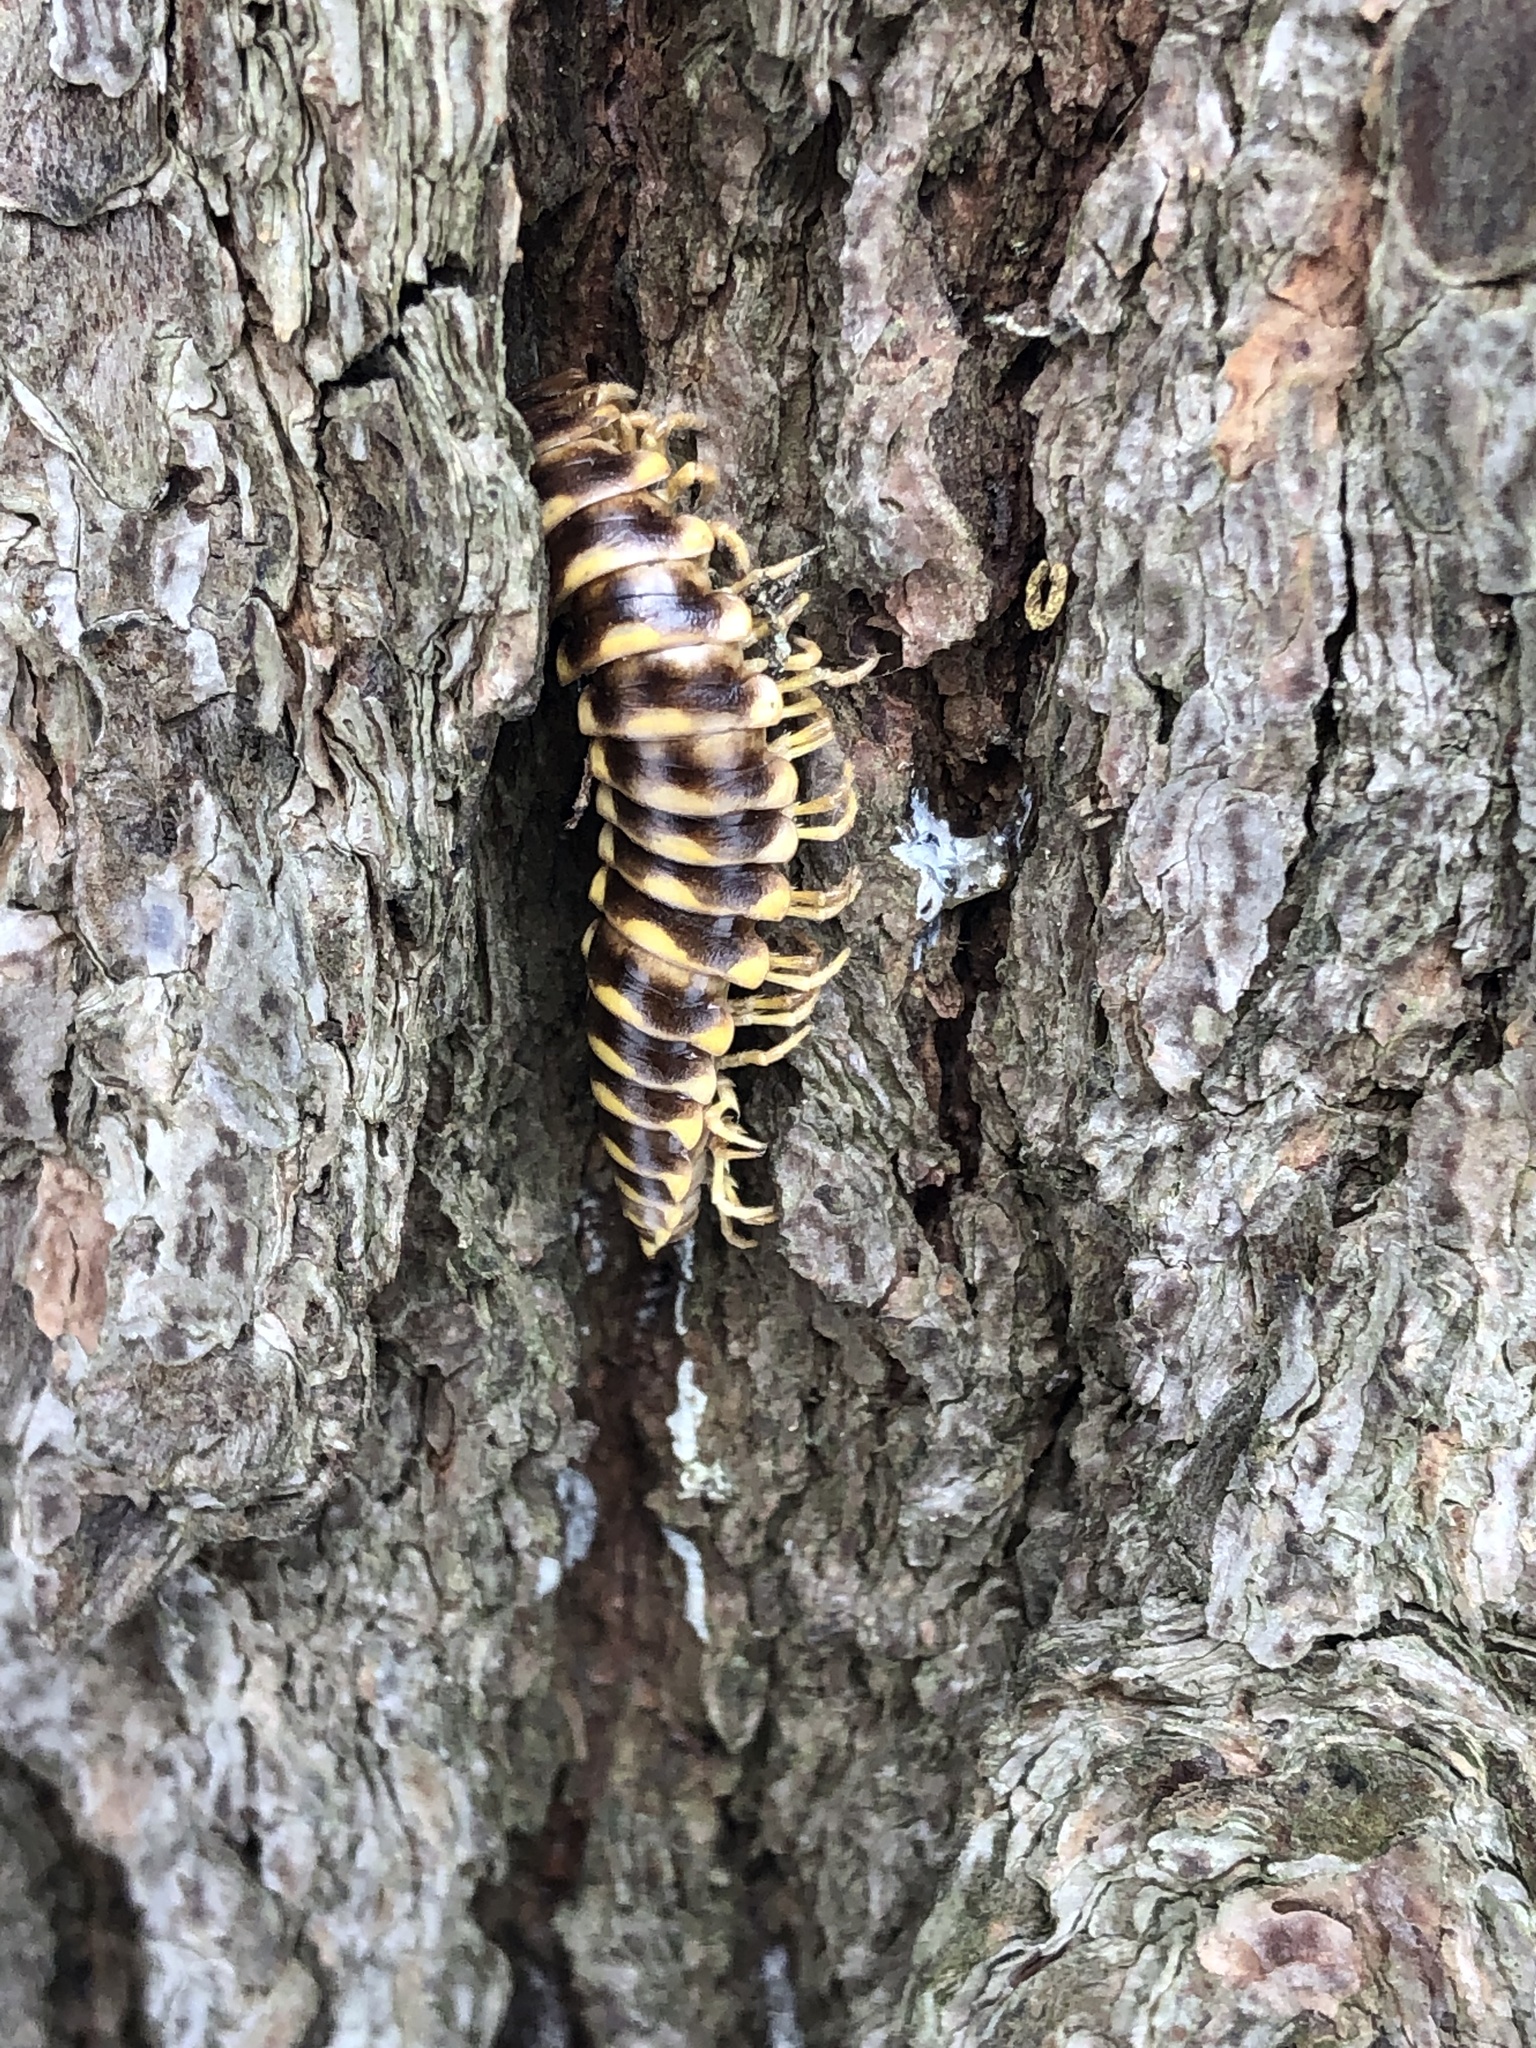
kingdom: Animalia
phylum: Arthropoda
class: Diplopoda
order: Polydesmida
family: Xystodesmidae
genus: Apheloria
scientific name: Apheloria virginiensis
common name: Black-and-gold flat millipede
